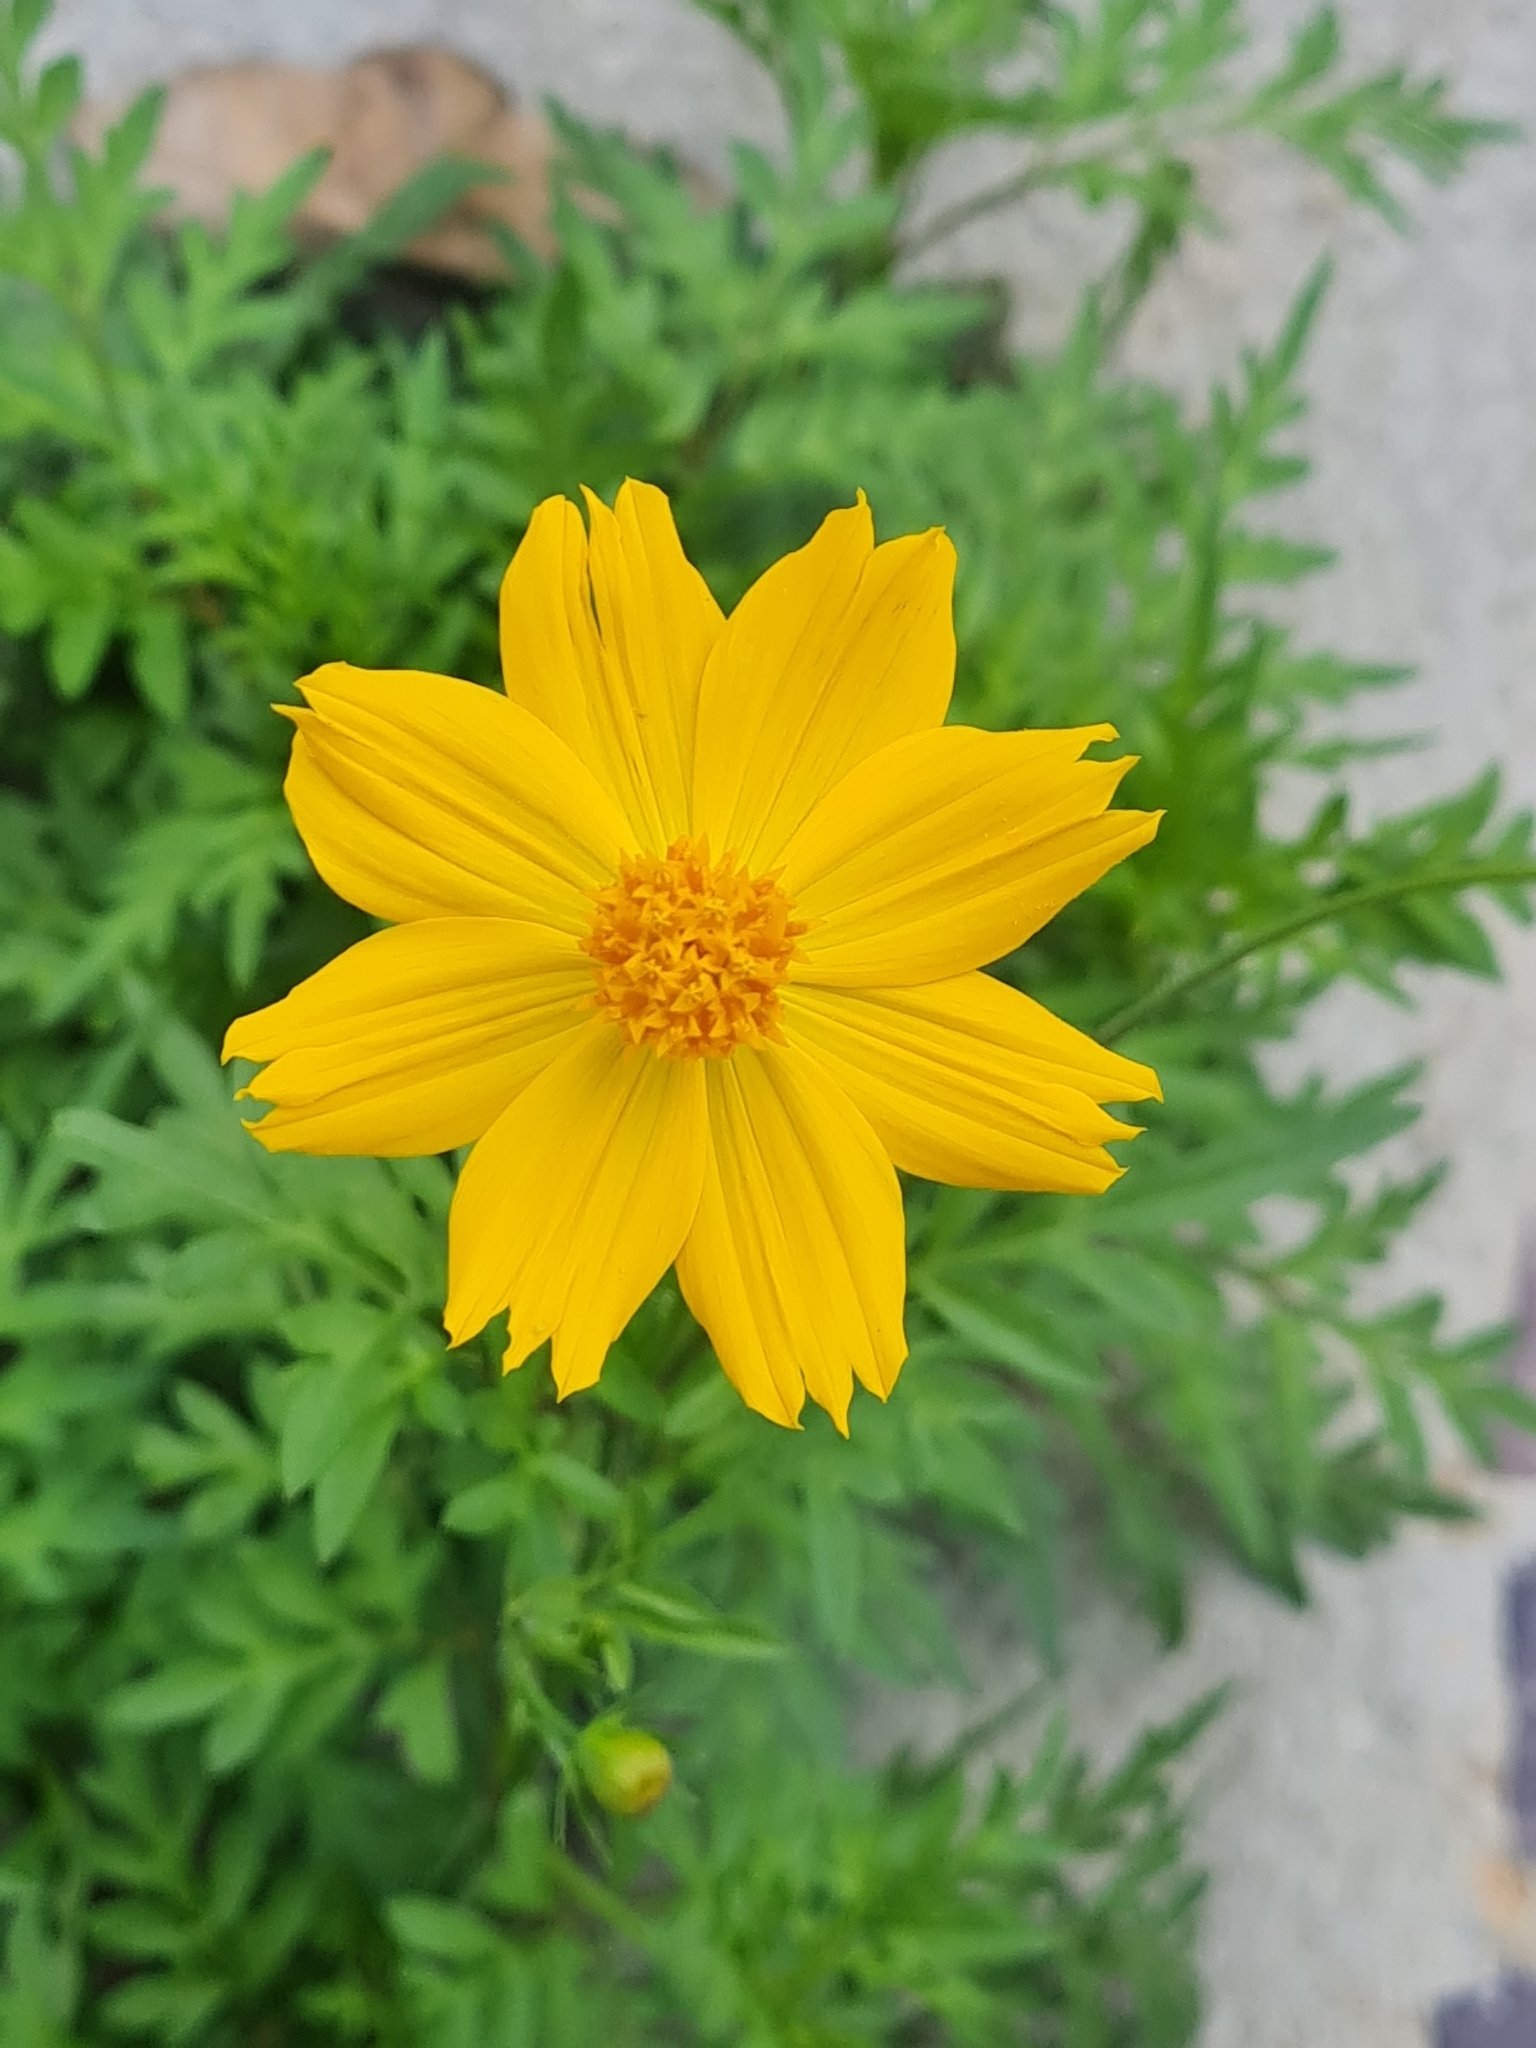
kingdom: Plantae
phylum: Tracheophyta
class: Magnoliopsida
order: Asterales
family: Asteraceae
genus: Cosmos
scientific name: Cosmos sulphureus
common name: Sulphur cosmos
